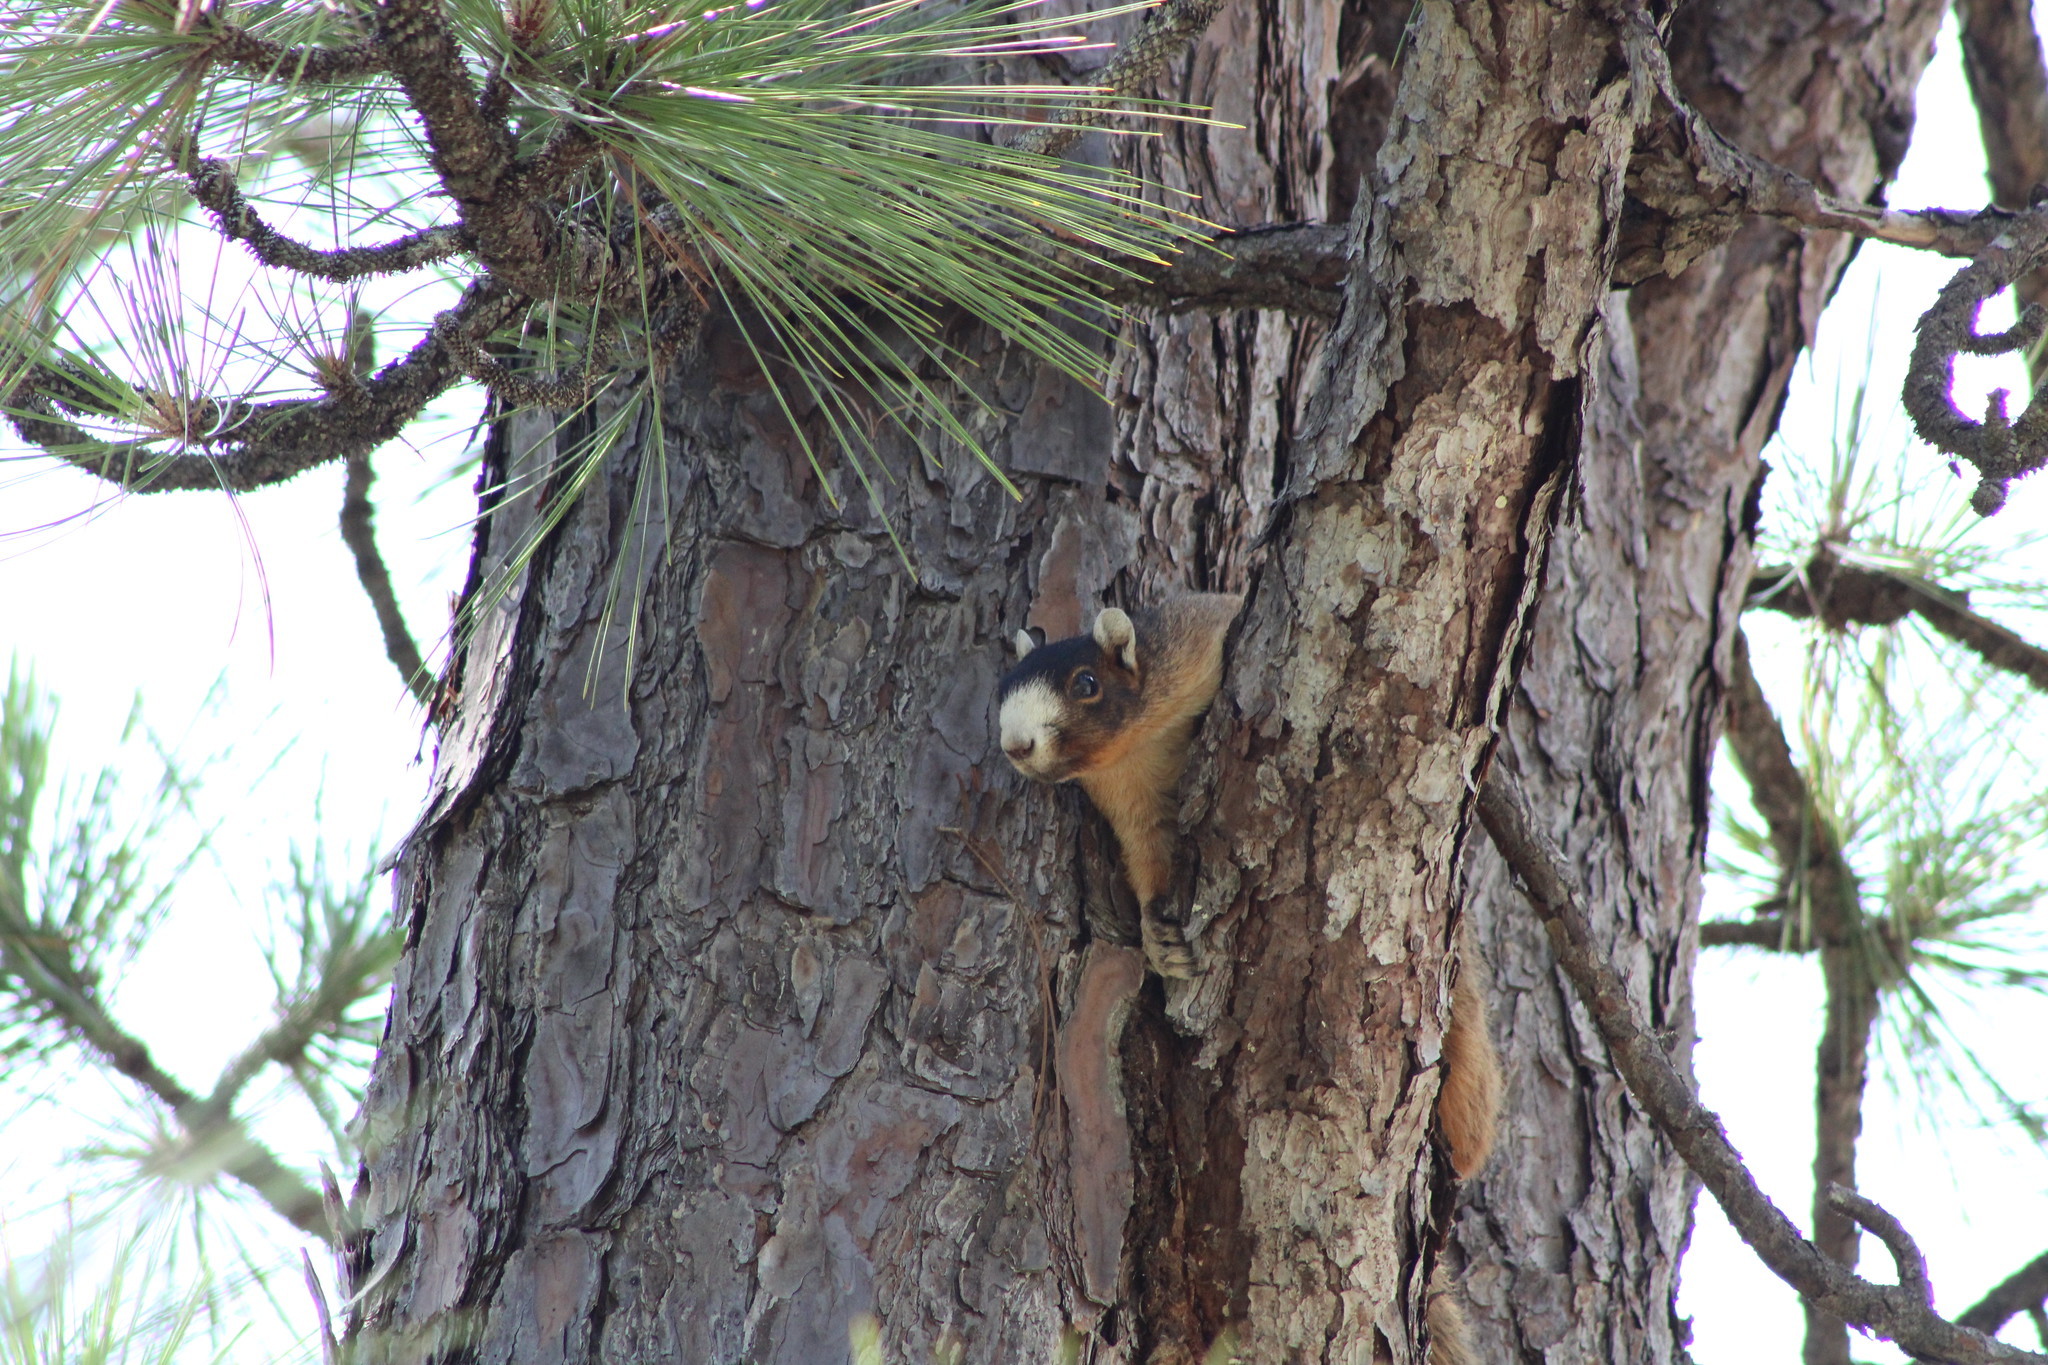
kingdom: Animalia
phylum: Chordata
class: Mammalia
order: Rodentia
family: Sciuridae
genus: Sciurus
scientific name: Sciurus niger
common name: Fox squirrel
